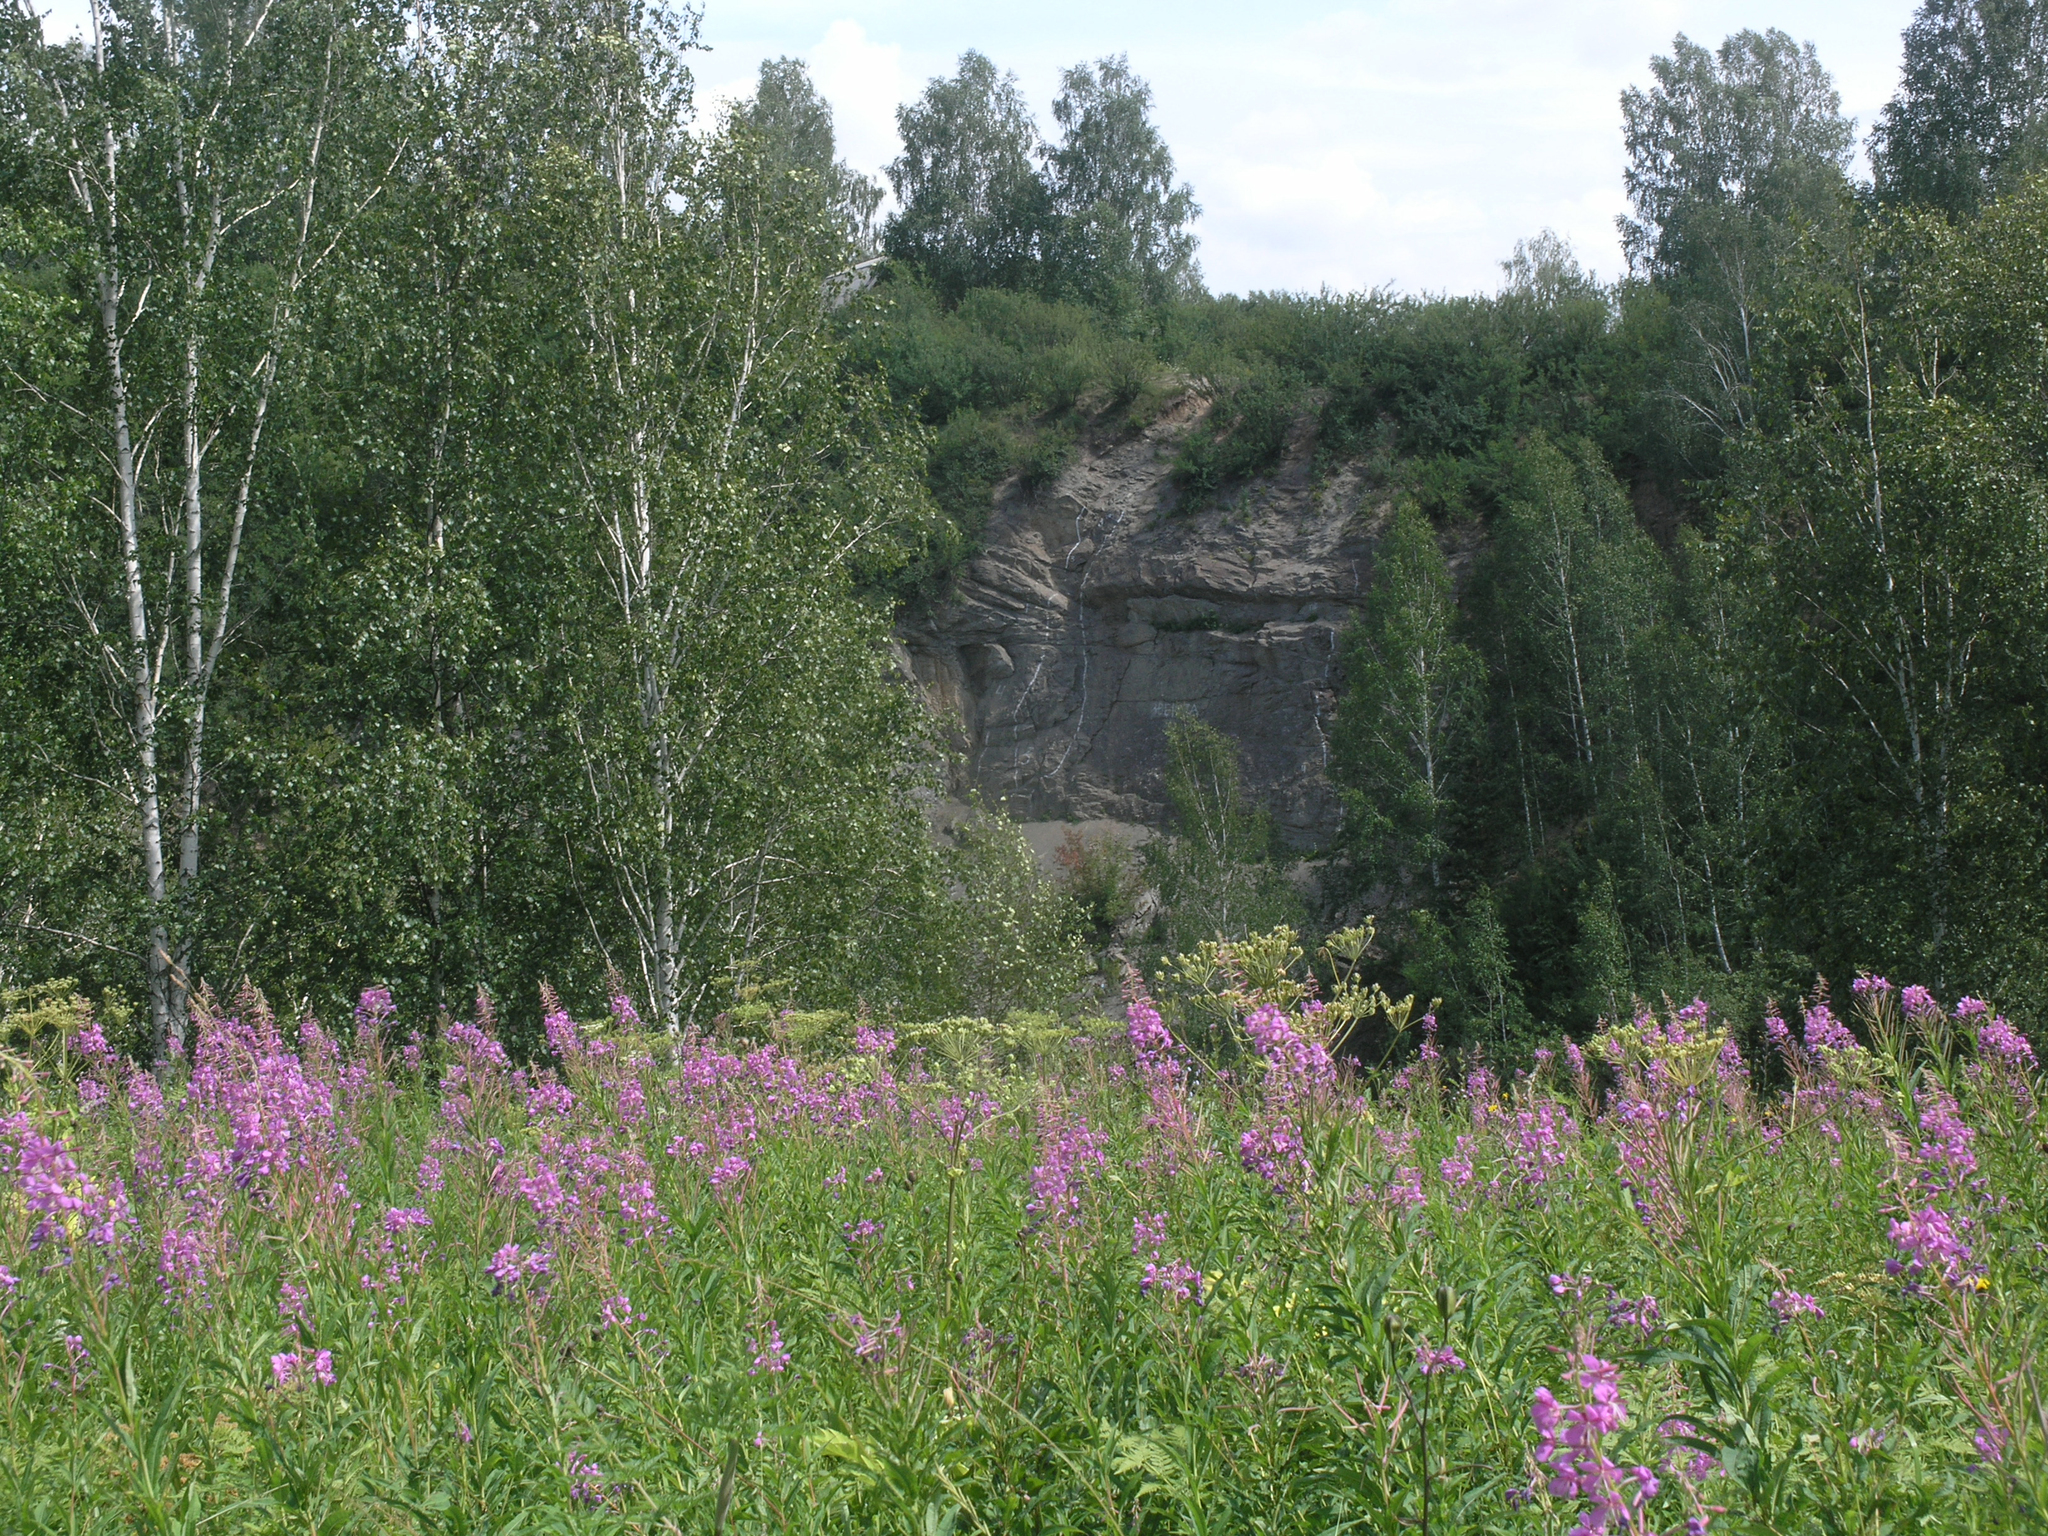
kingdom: Plantae
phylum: Tracheophyta
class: Magnoliopsida
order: Myrtales
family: Onagraceae
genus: Chamaenerion
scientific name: Chamaenerion angustifolium
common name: Fireweed
